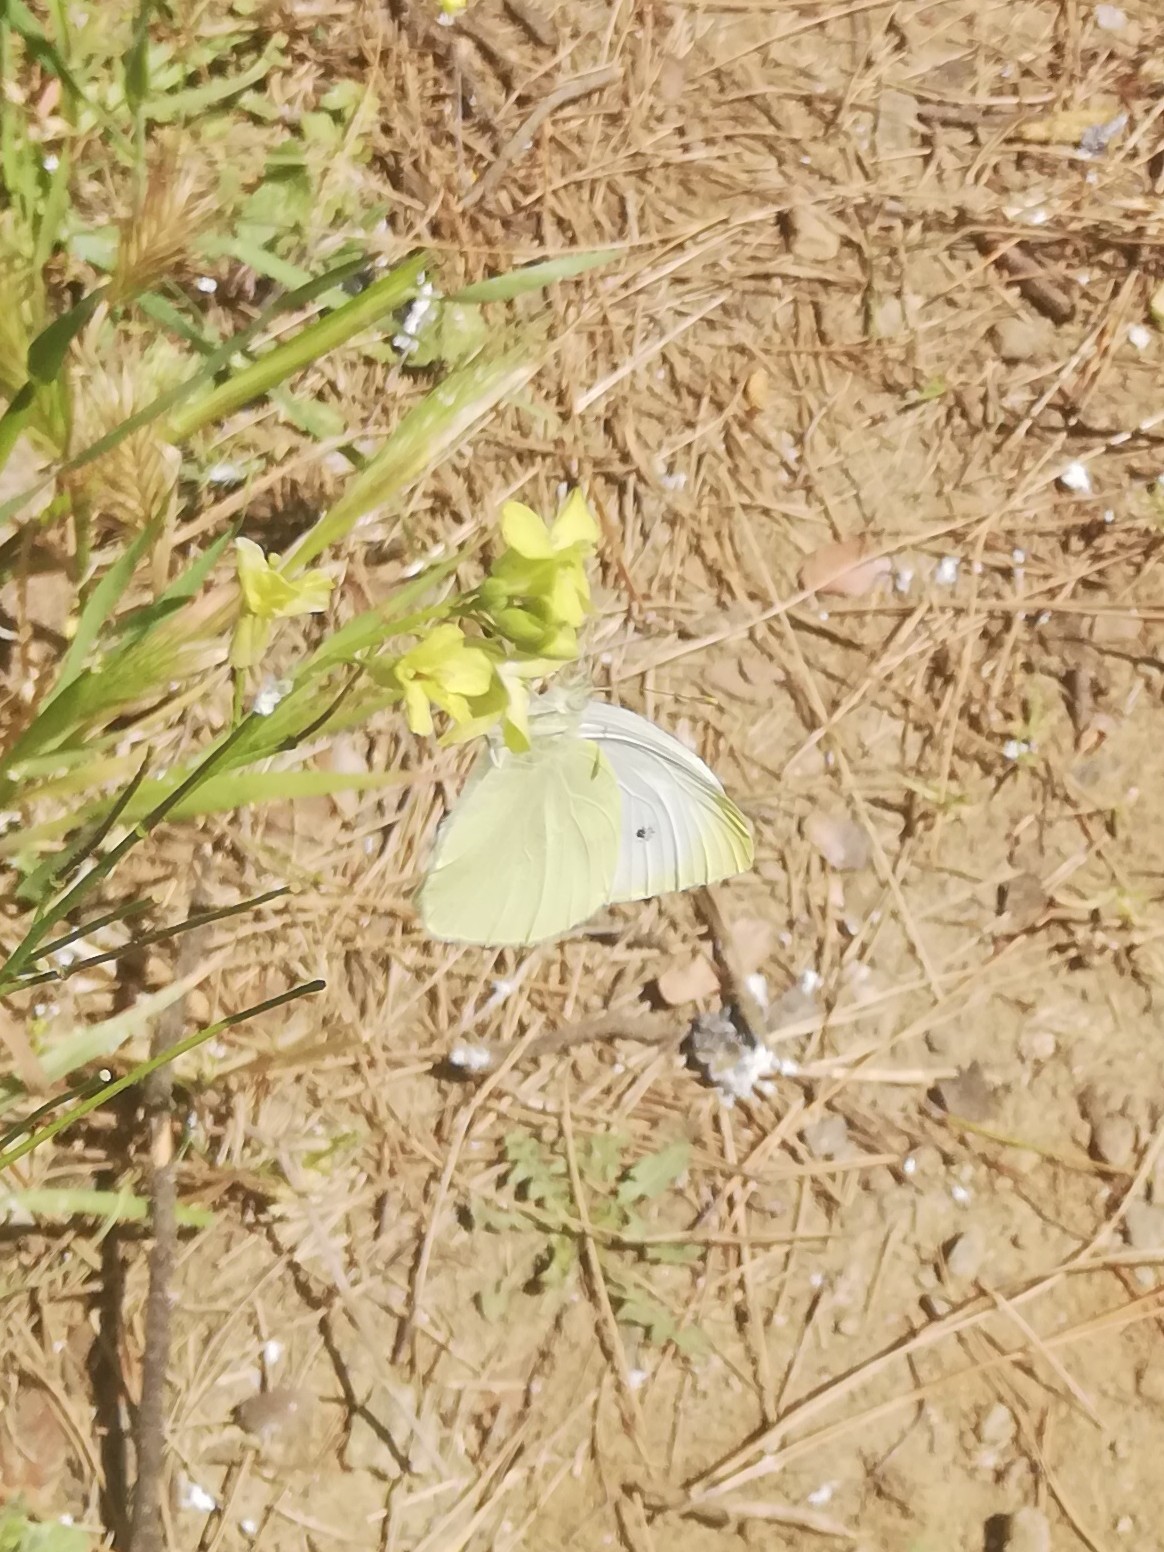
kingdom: Animalia
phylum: Arthropoda
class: Insecta
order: Lepidoptera
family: Pieridae
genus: Pieris
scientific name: Pieris rapae
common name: Small white
